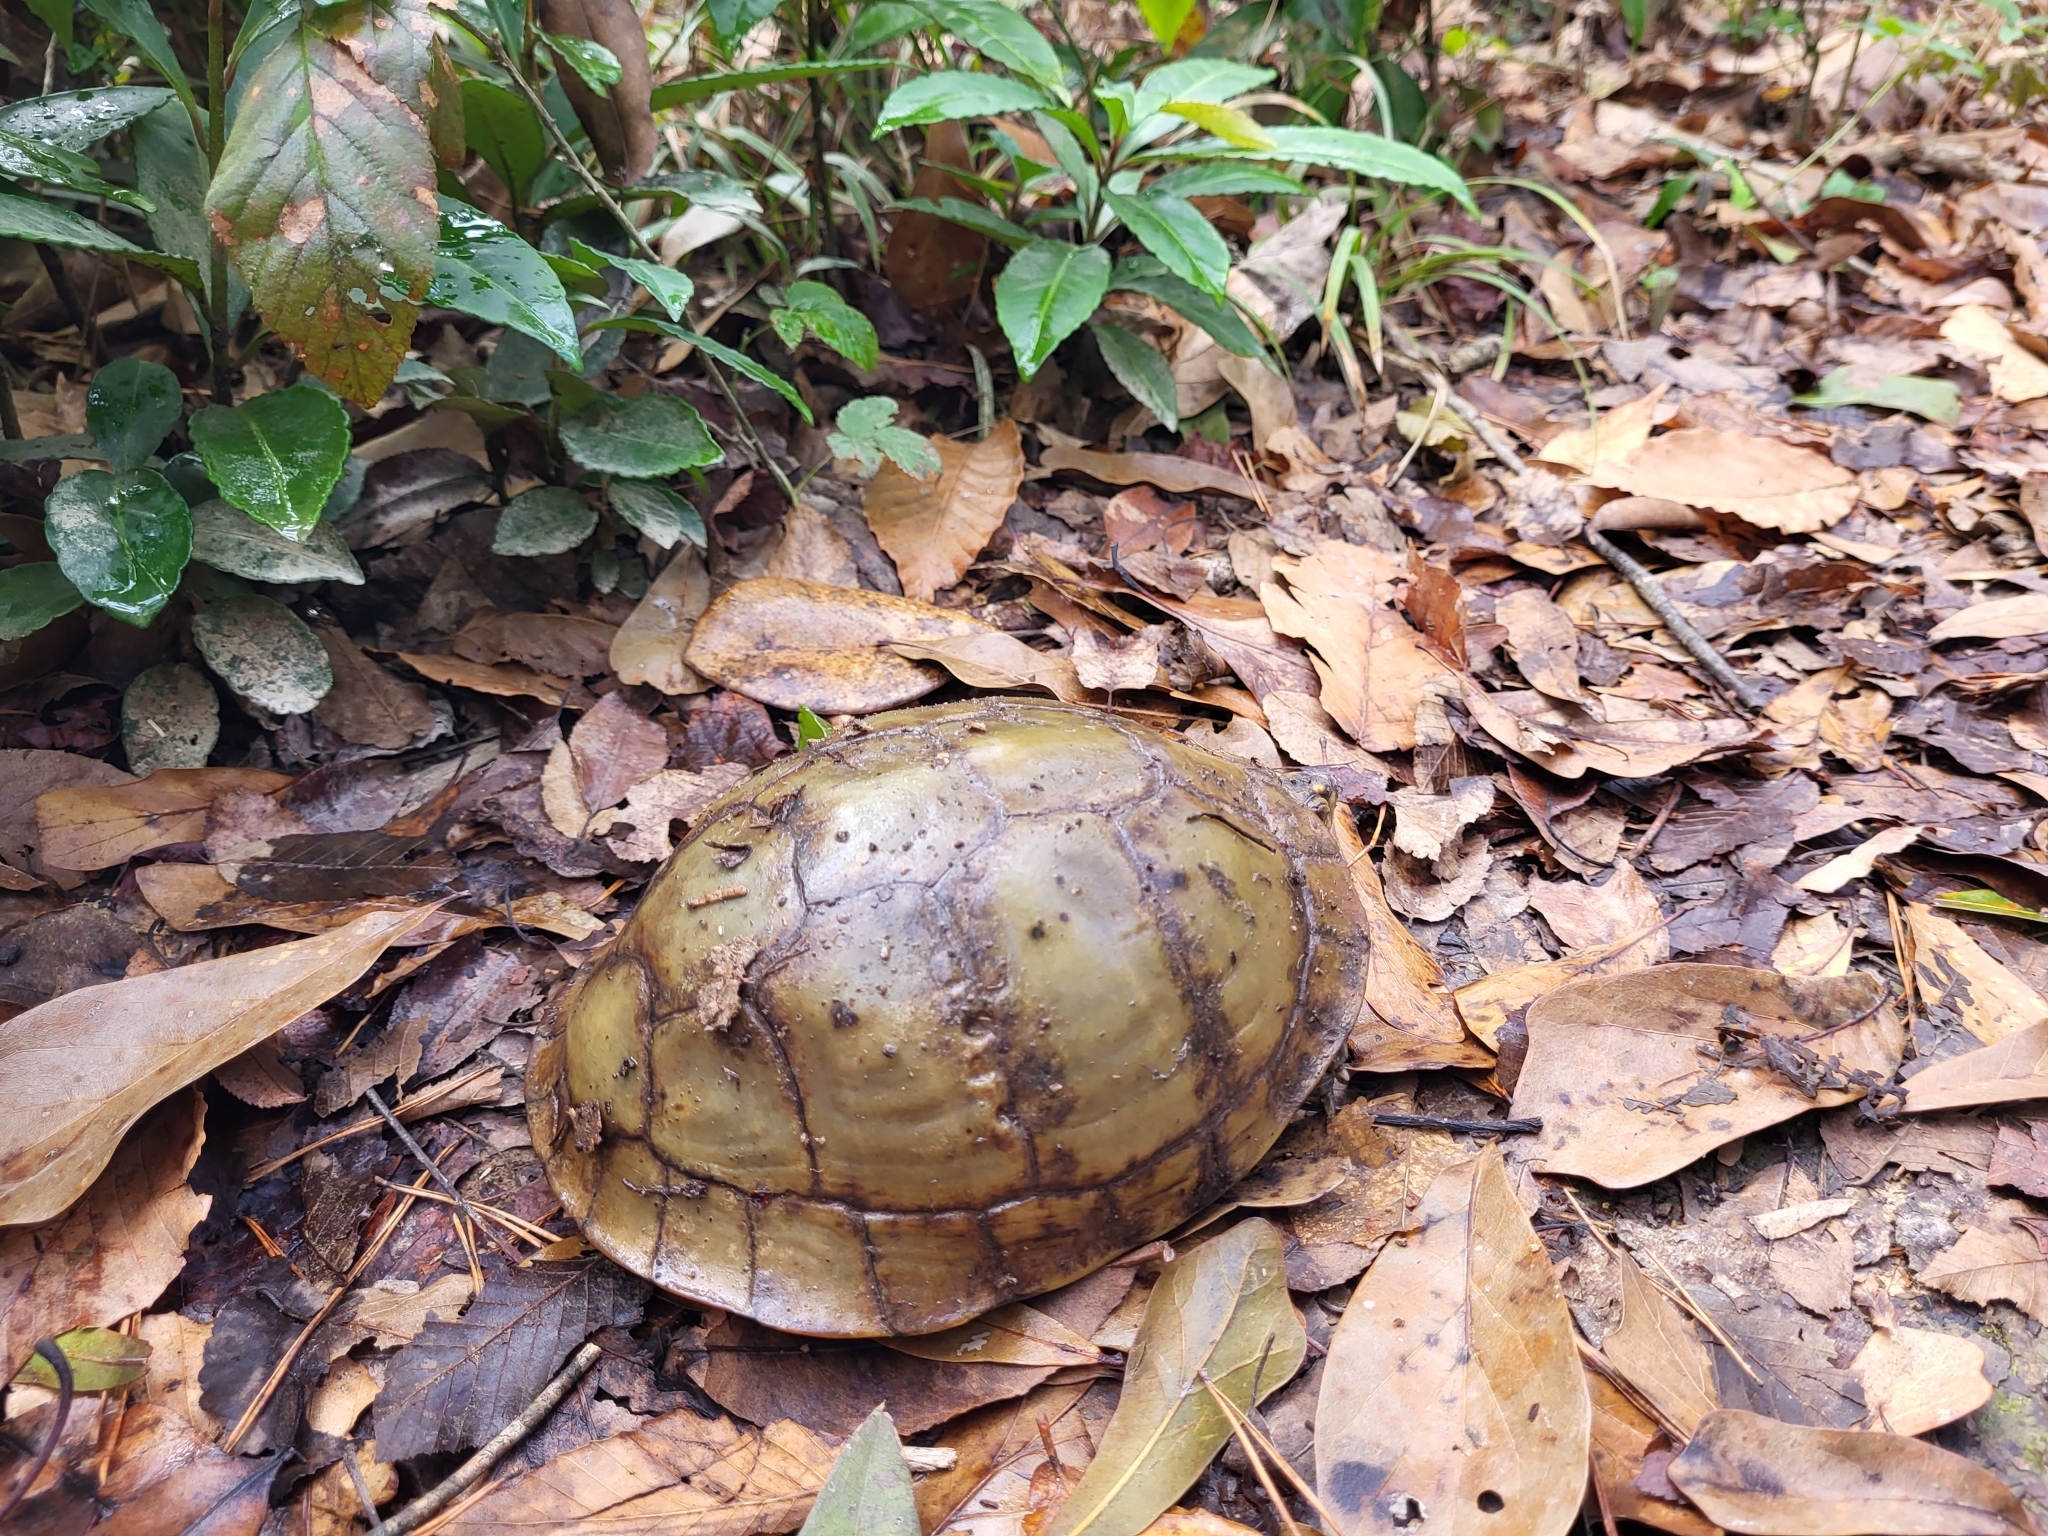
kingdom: Animalia
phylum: Chordata
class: Testudines
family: Emydidae
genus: Terrapene
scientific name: Terrapene carolina
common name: Common box turtle
